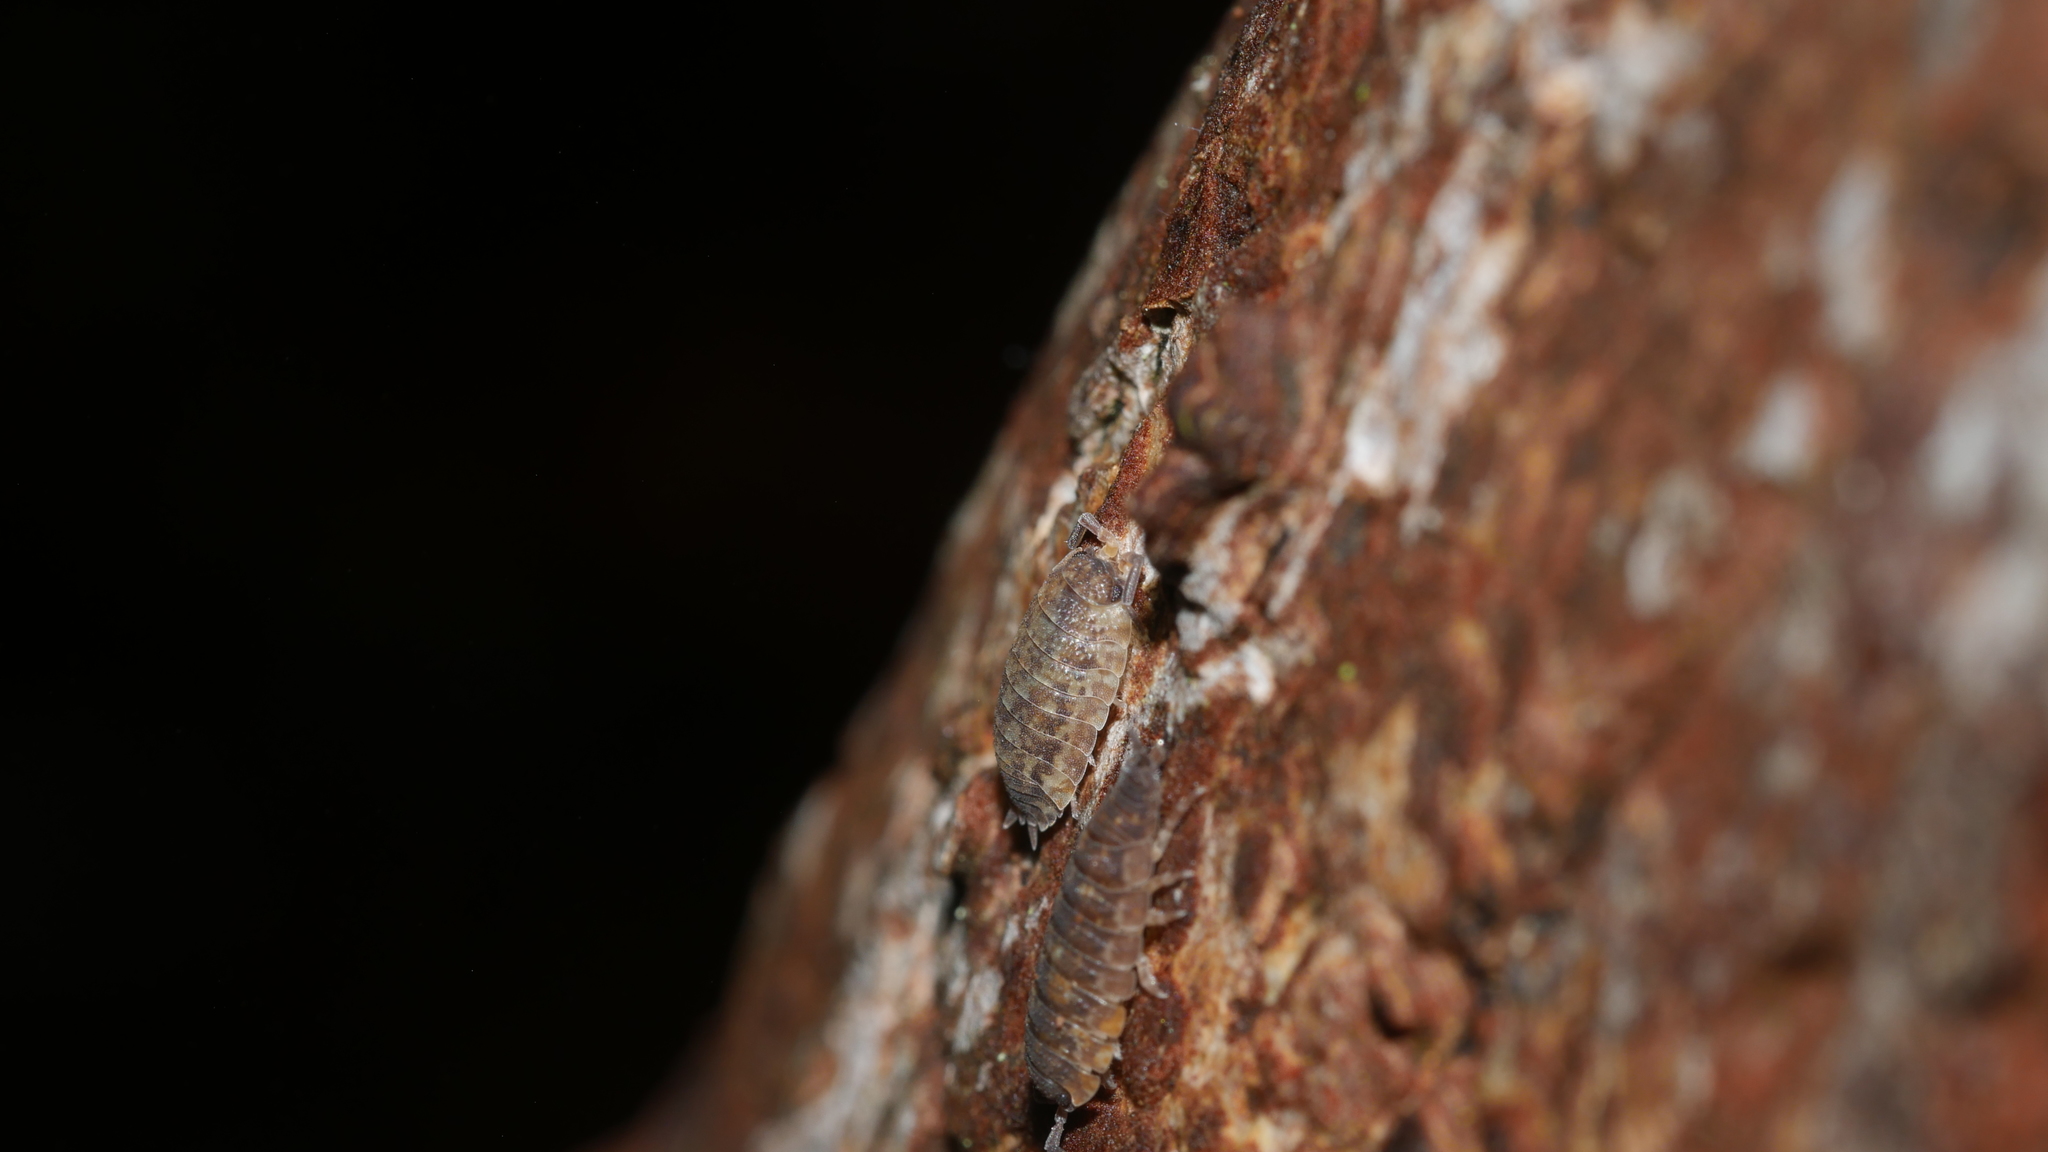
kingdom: Animalia
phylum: Arthropoda
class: Malacostraca
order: Isopoda
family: Porcellionidae
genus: Porcellio
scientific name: Porcellio scaber
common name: Common rough woodlouse
